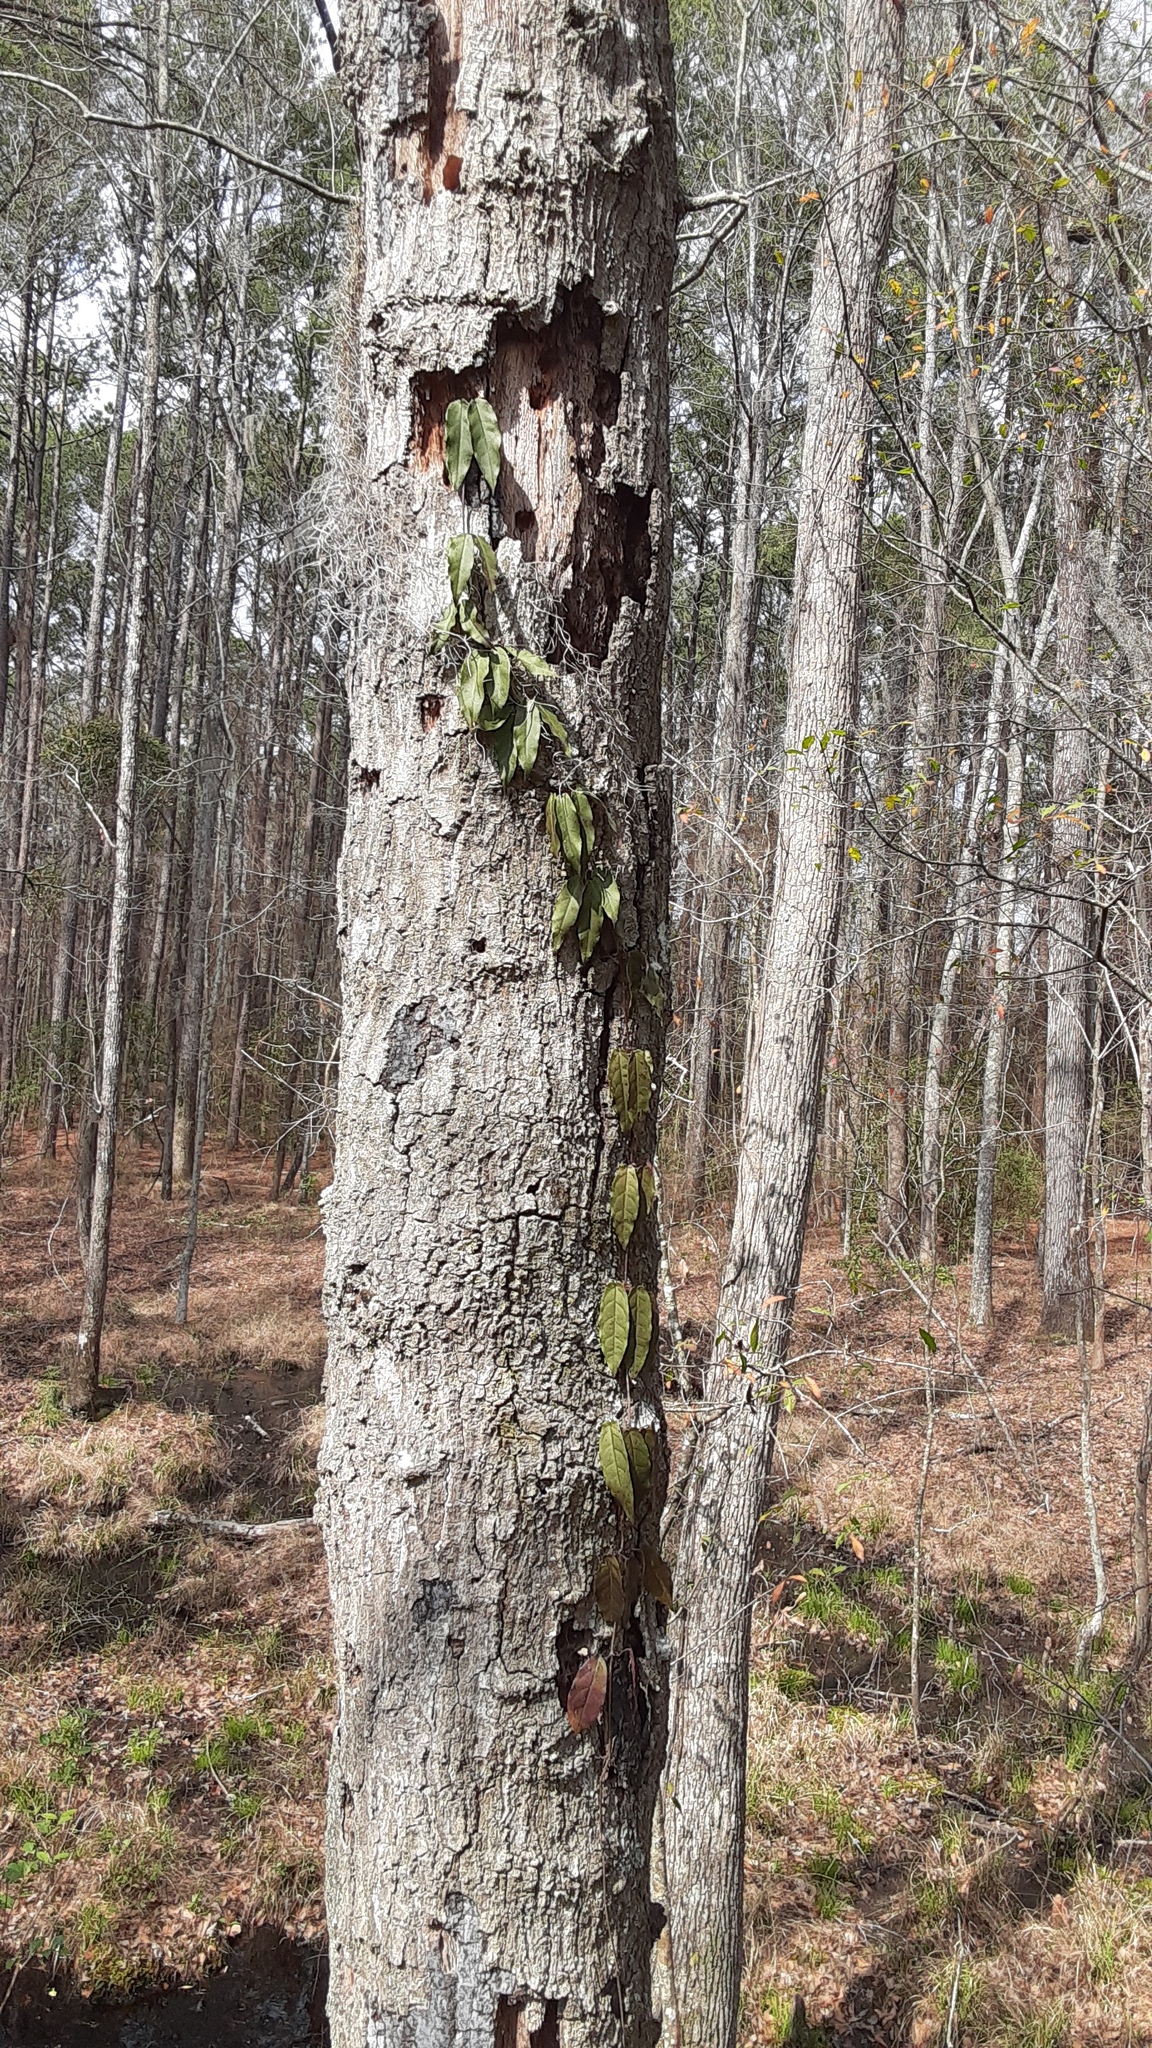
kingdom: Plantae
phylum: Tracheophyta
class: Magnoliopsida
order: Lamiales
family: Bignoniaceae
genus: Bignonia
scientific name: Bignonia capreolata
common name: Crossvine
